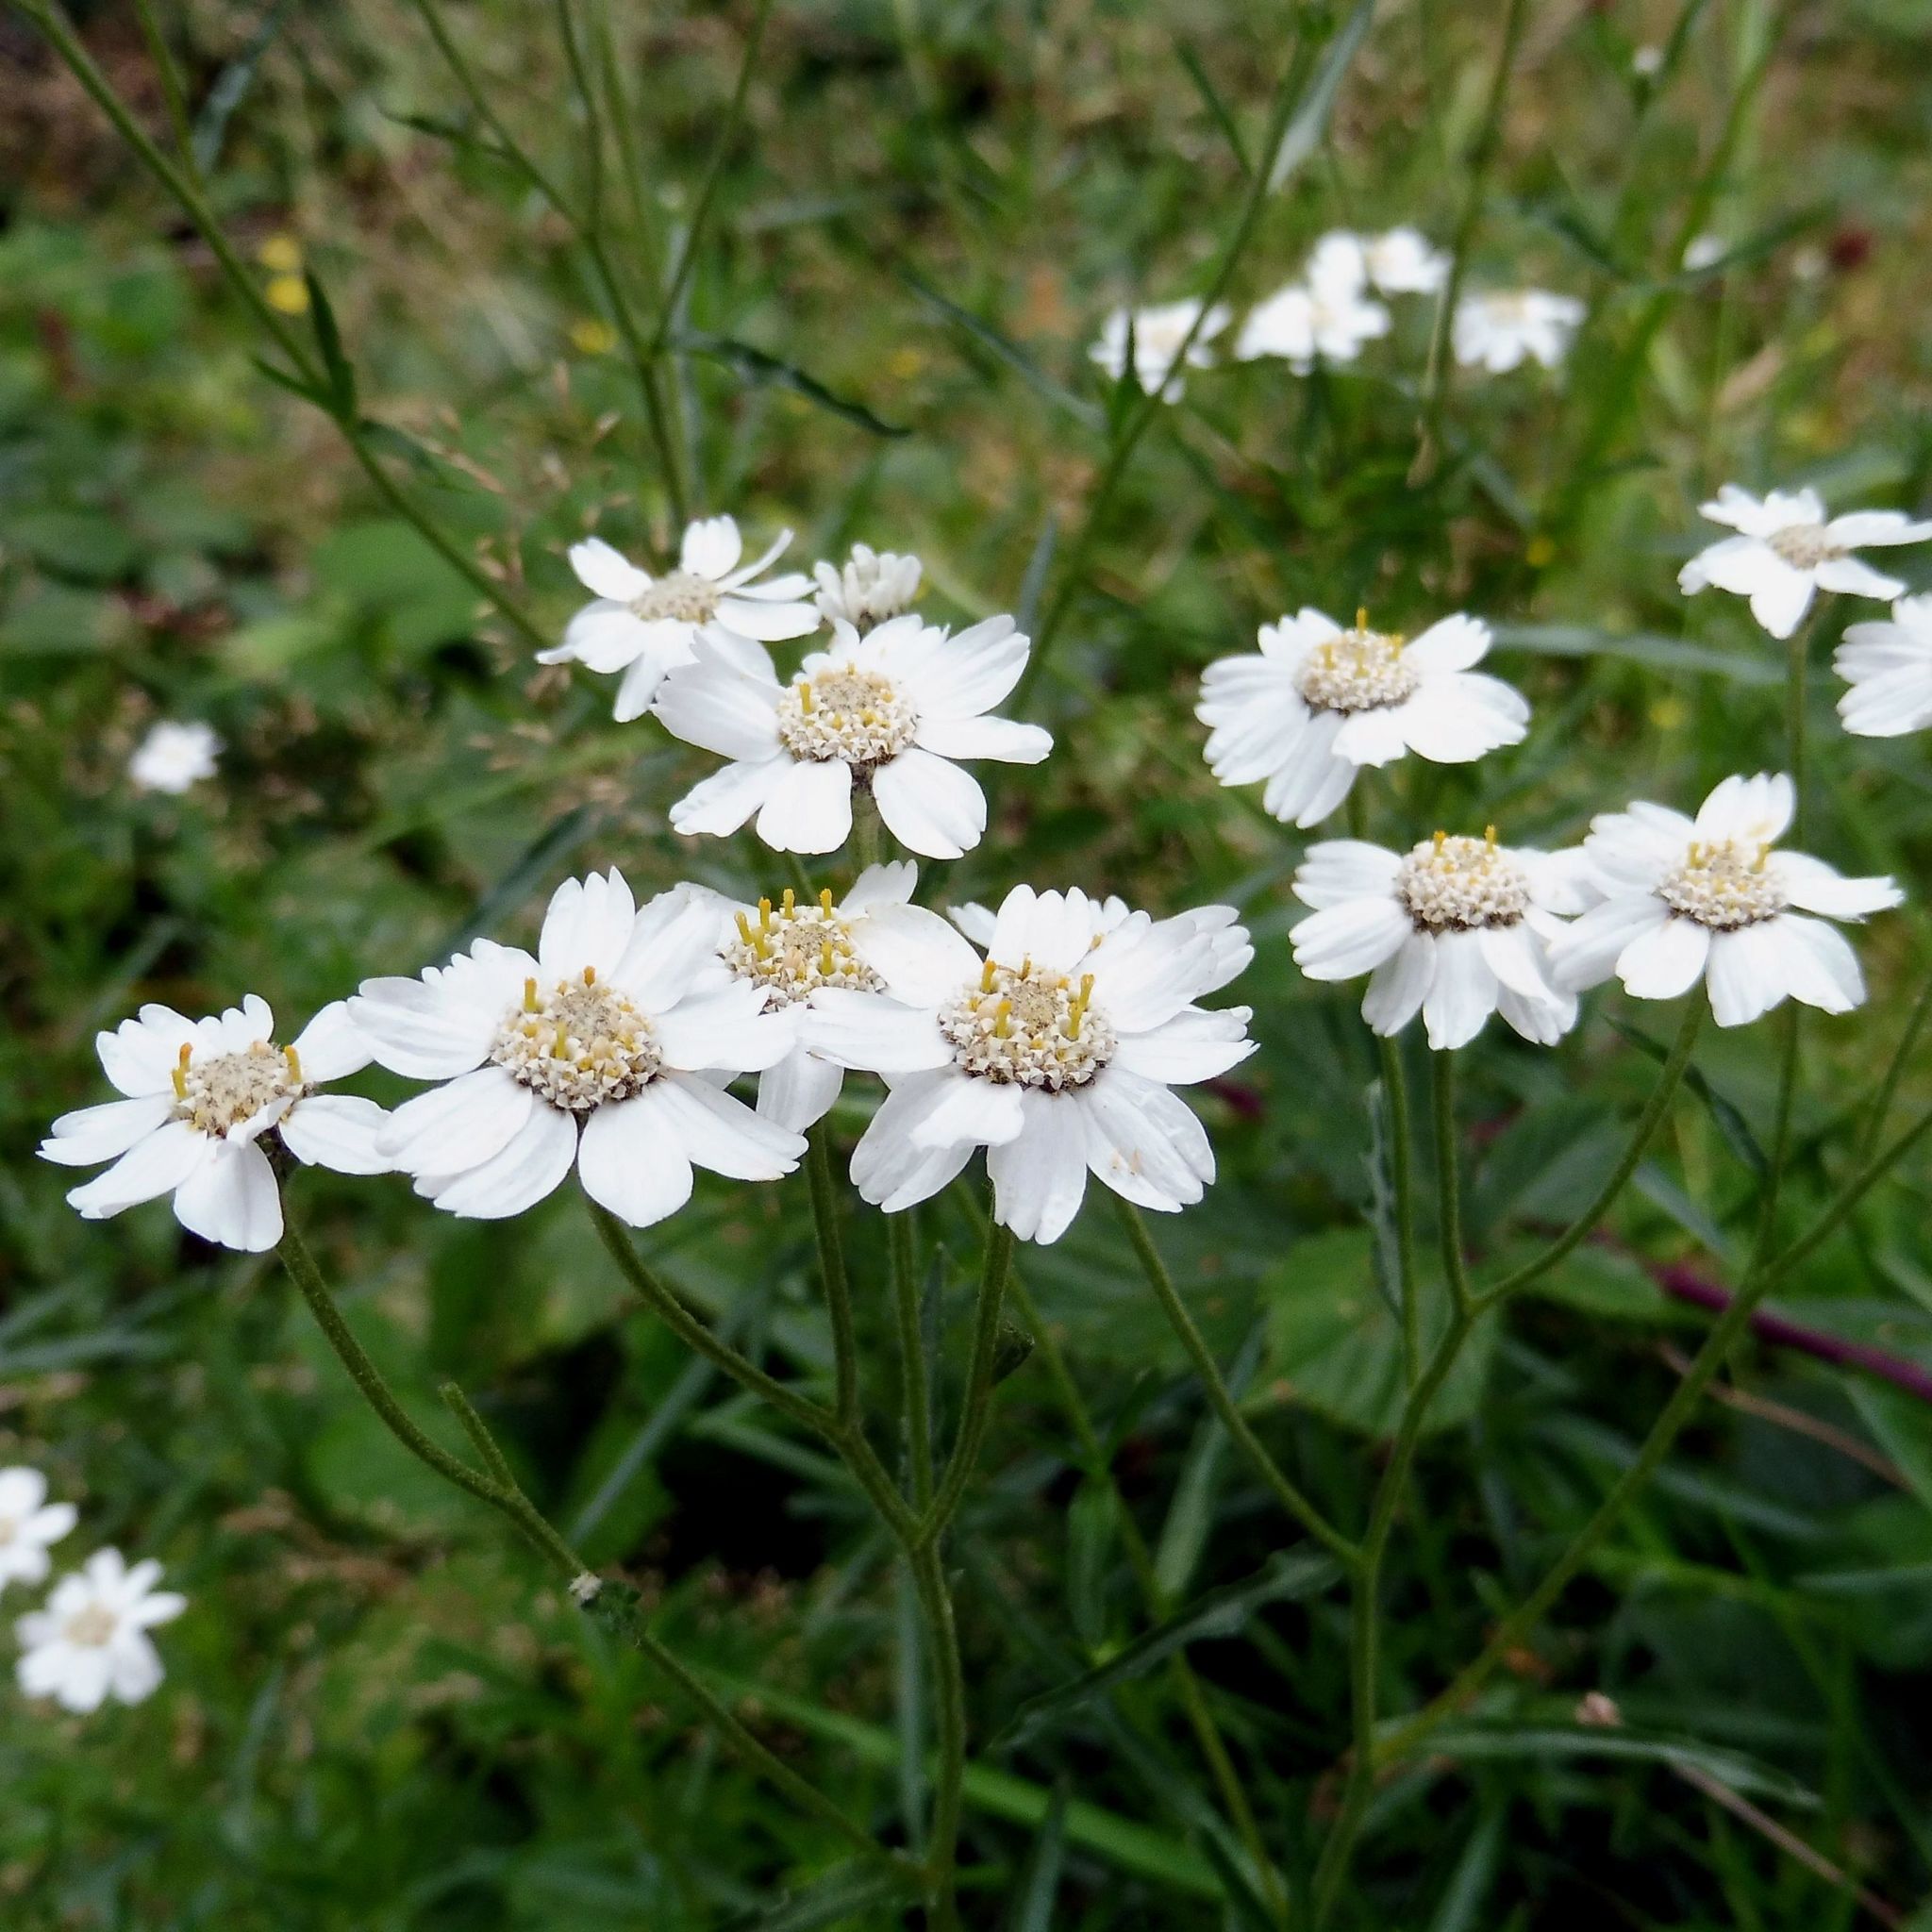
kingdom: Plantae
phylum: Tracheophyta
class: Magnoliopsida
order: Asterales
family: Asteraceae
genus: Achillea
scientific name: Achillea ptarmica
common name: Sneezeweed
